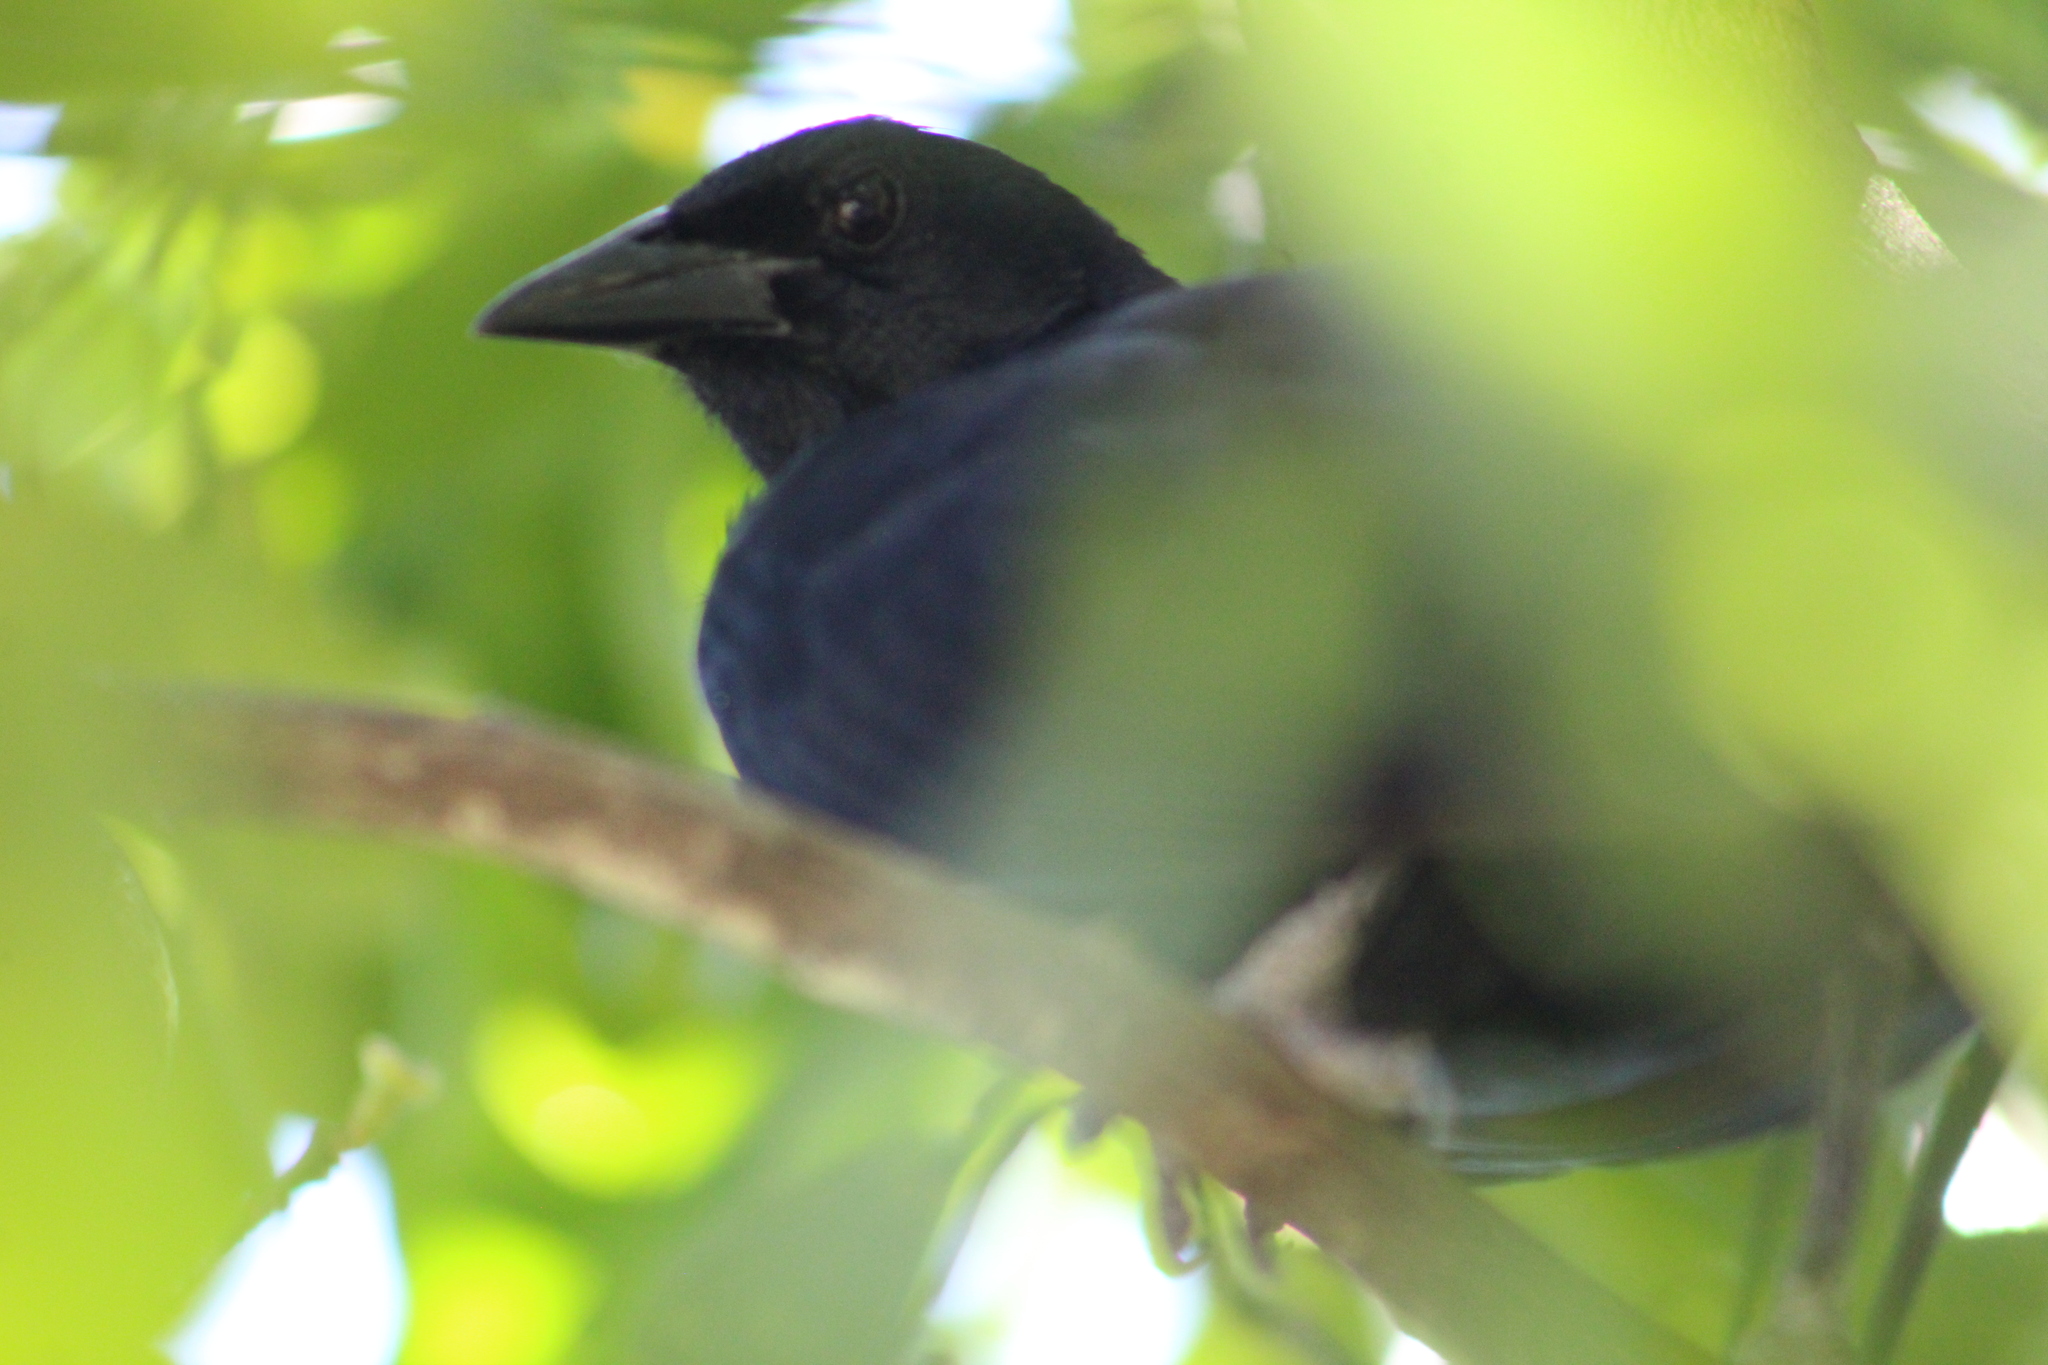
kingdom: Animalia
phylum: Chordata
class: Aves
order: Passeriformes
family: Icteridae
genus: Dives
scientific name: Dives dives
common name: Melodious blackbird
